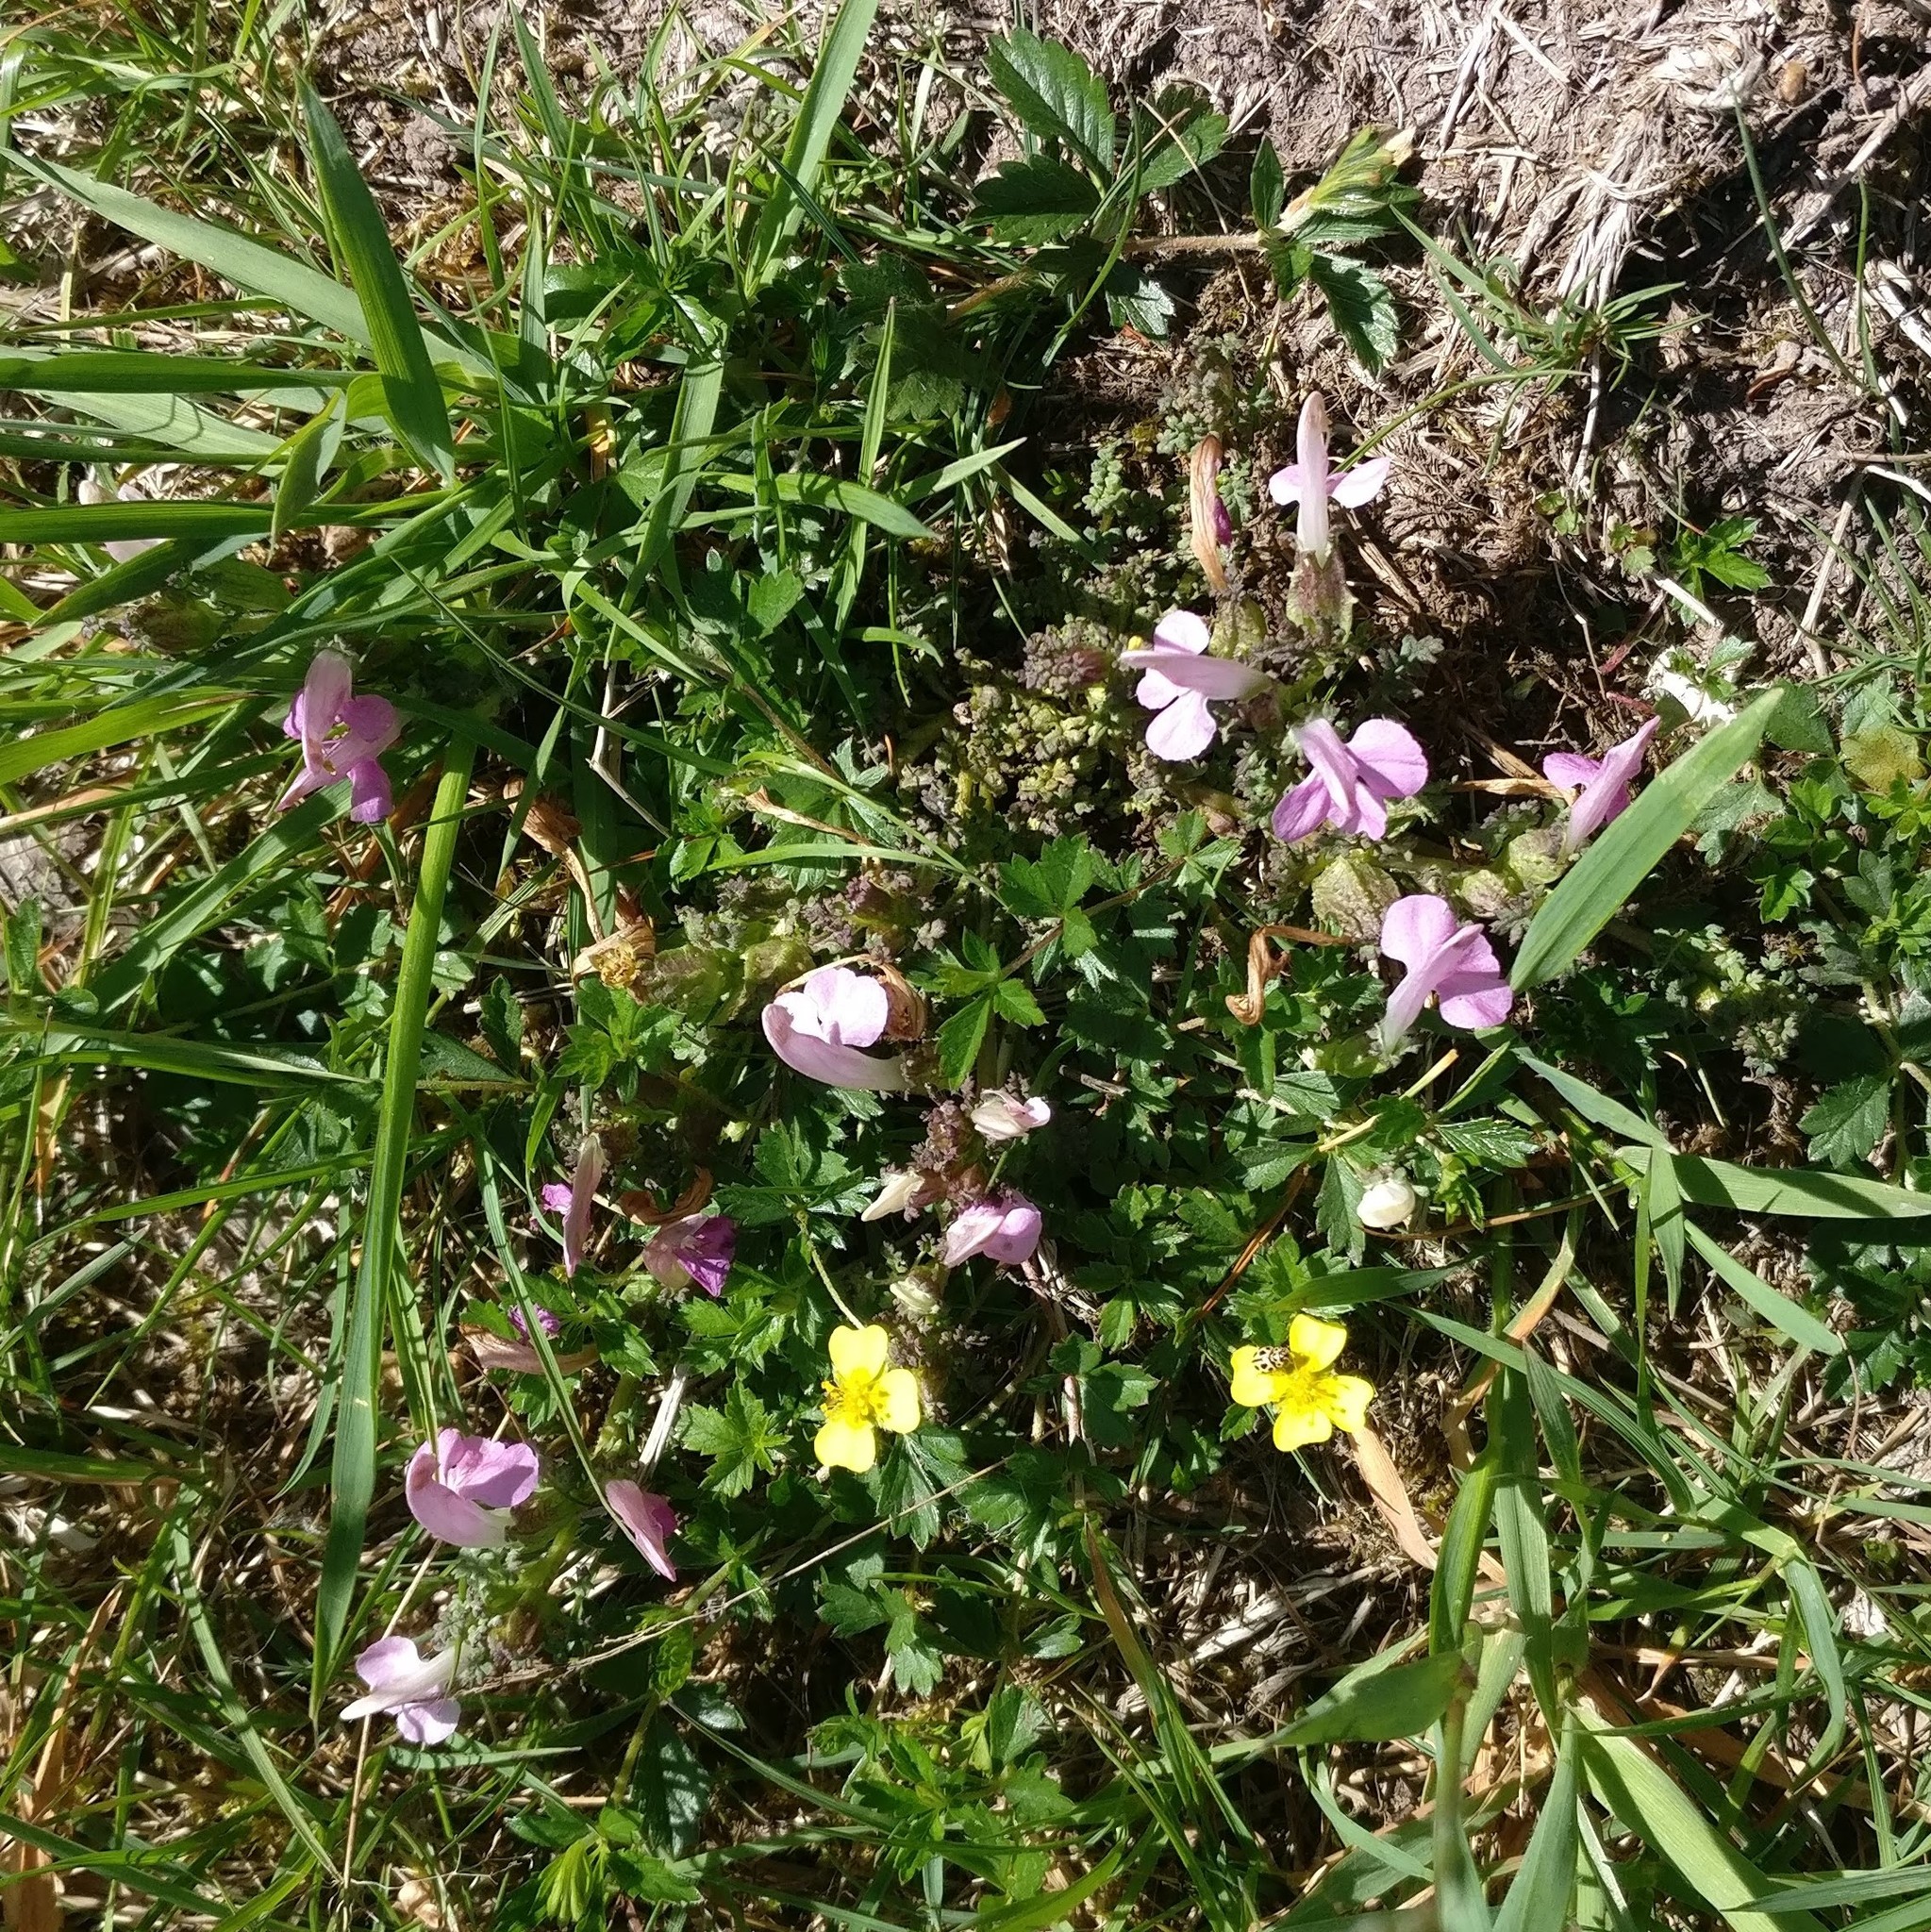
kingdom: Plantae
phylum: Tracheophyta
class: Magnoliopsida
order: Lamiales
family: Orobanchaceae
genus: Pedicularis
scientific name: Pedicularis sylvatica
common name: Lousewort
